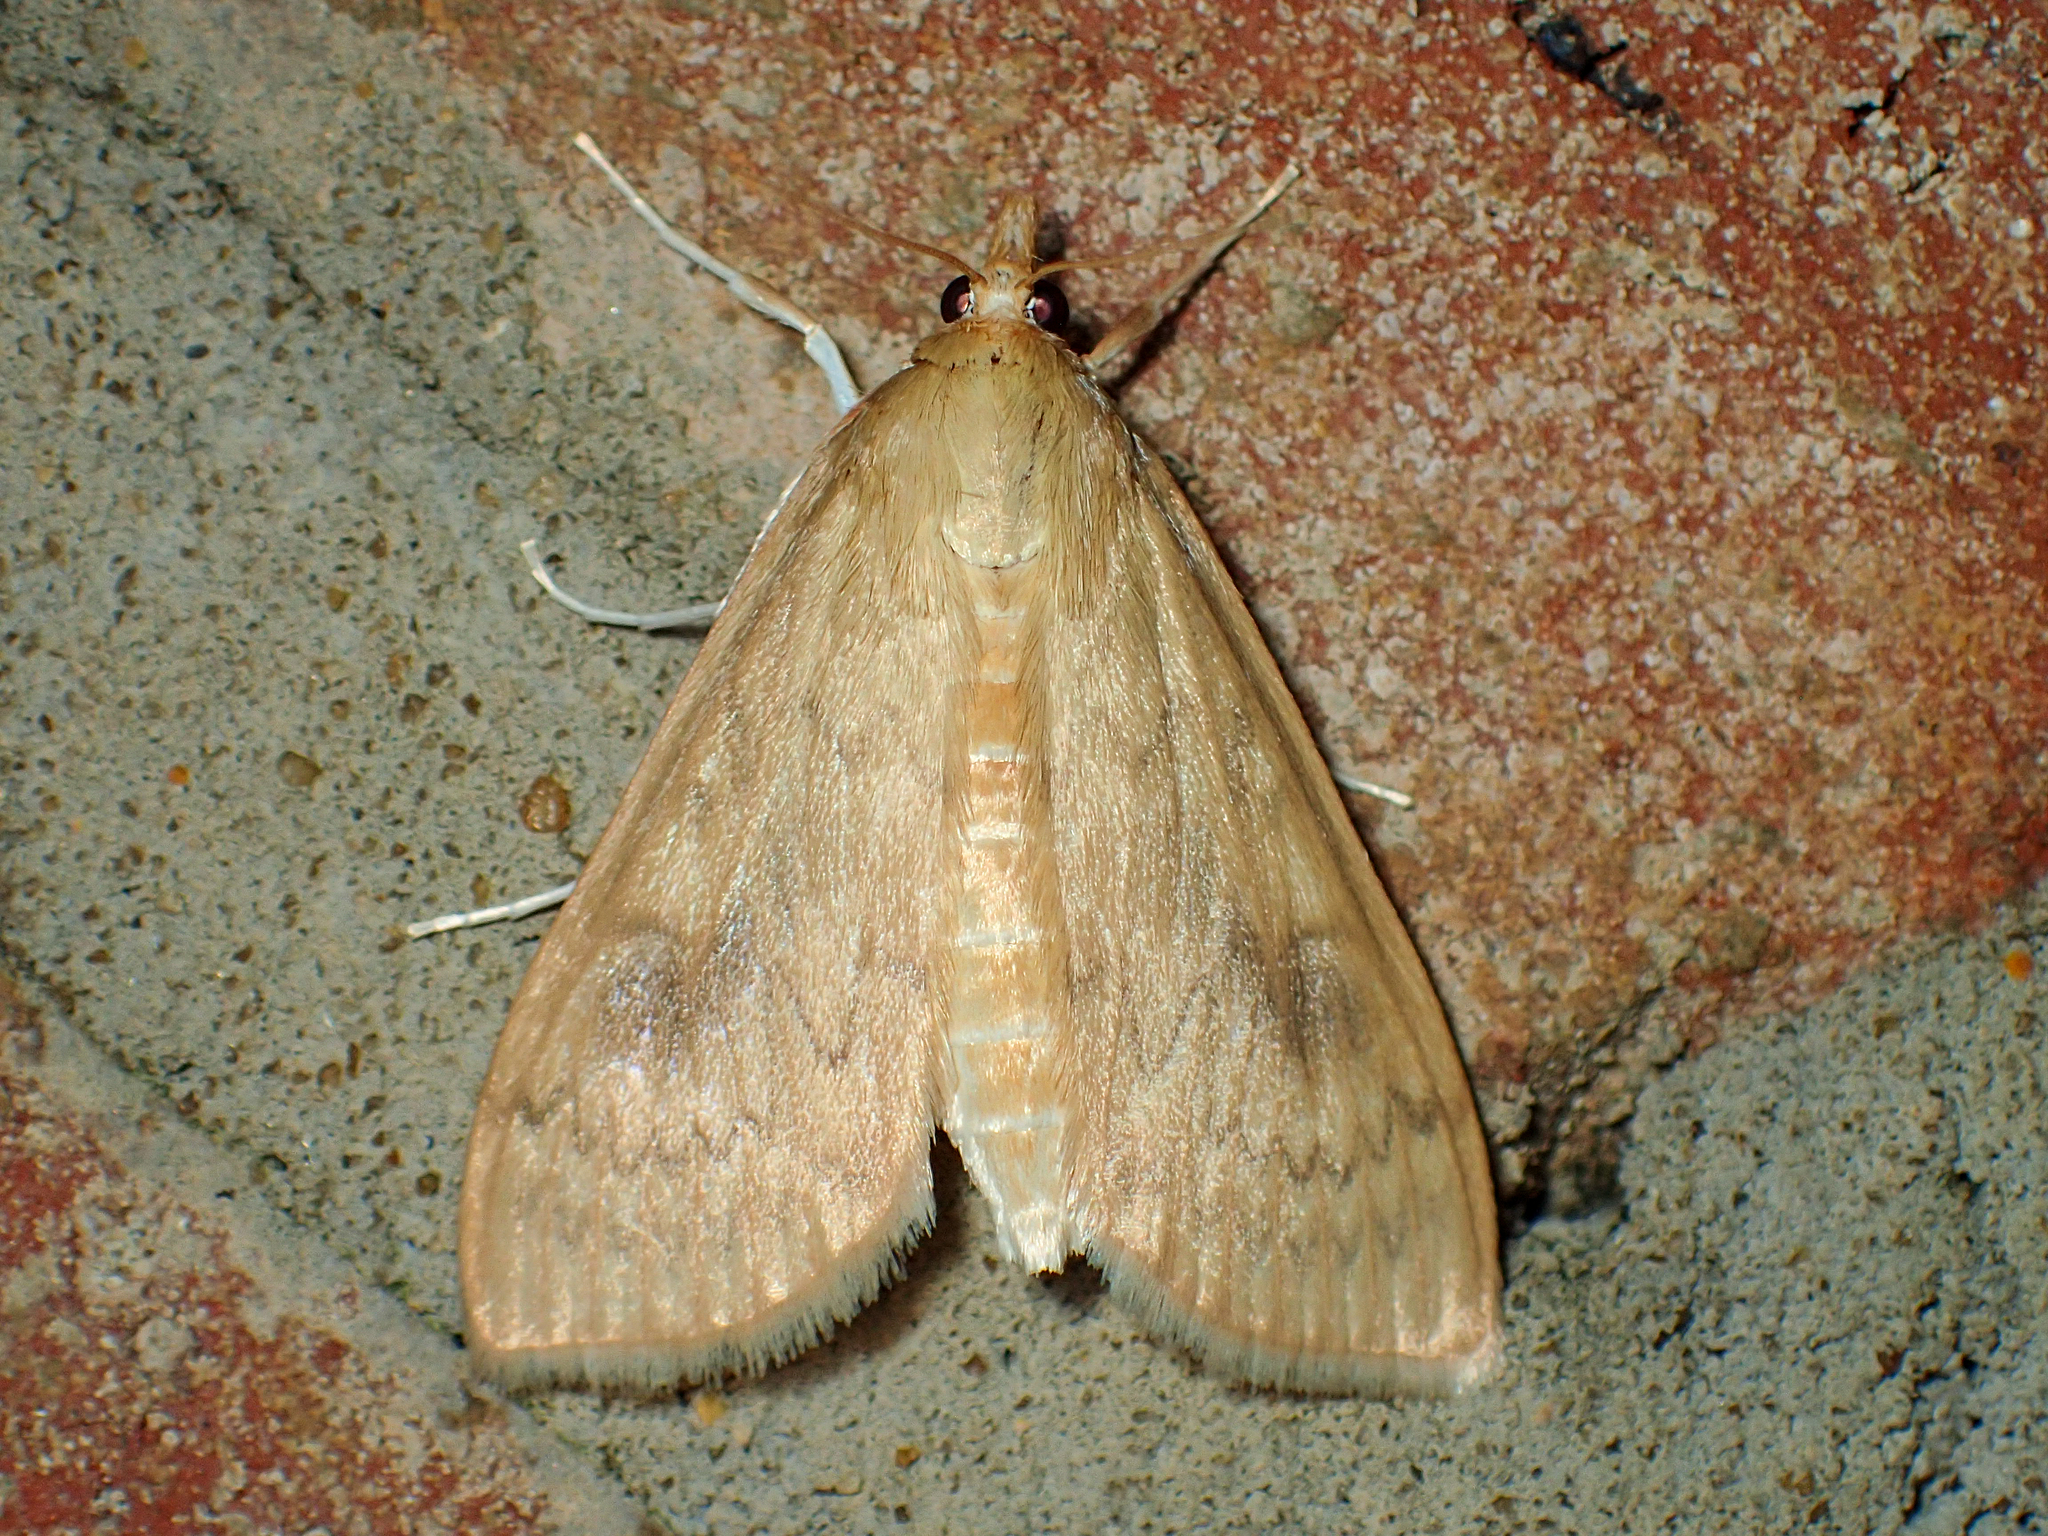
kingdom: Animalia
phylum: Arthropoda
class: Insecta
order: Lepidoptera
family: Crambidae
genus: Ostrinia
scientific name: Ostrinia penitalis
